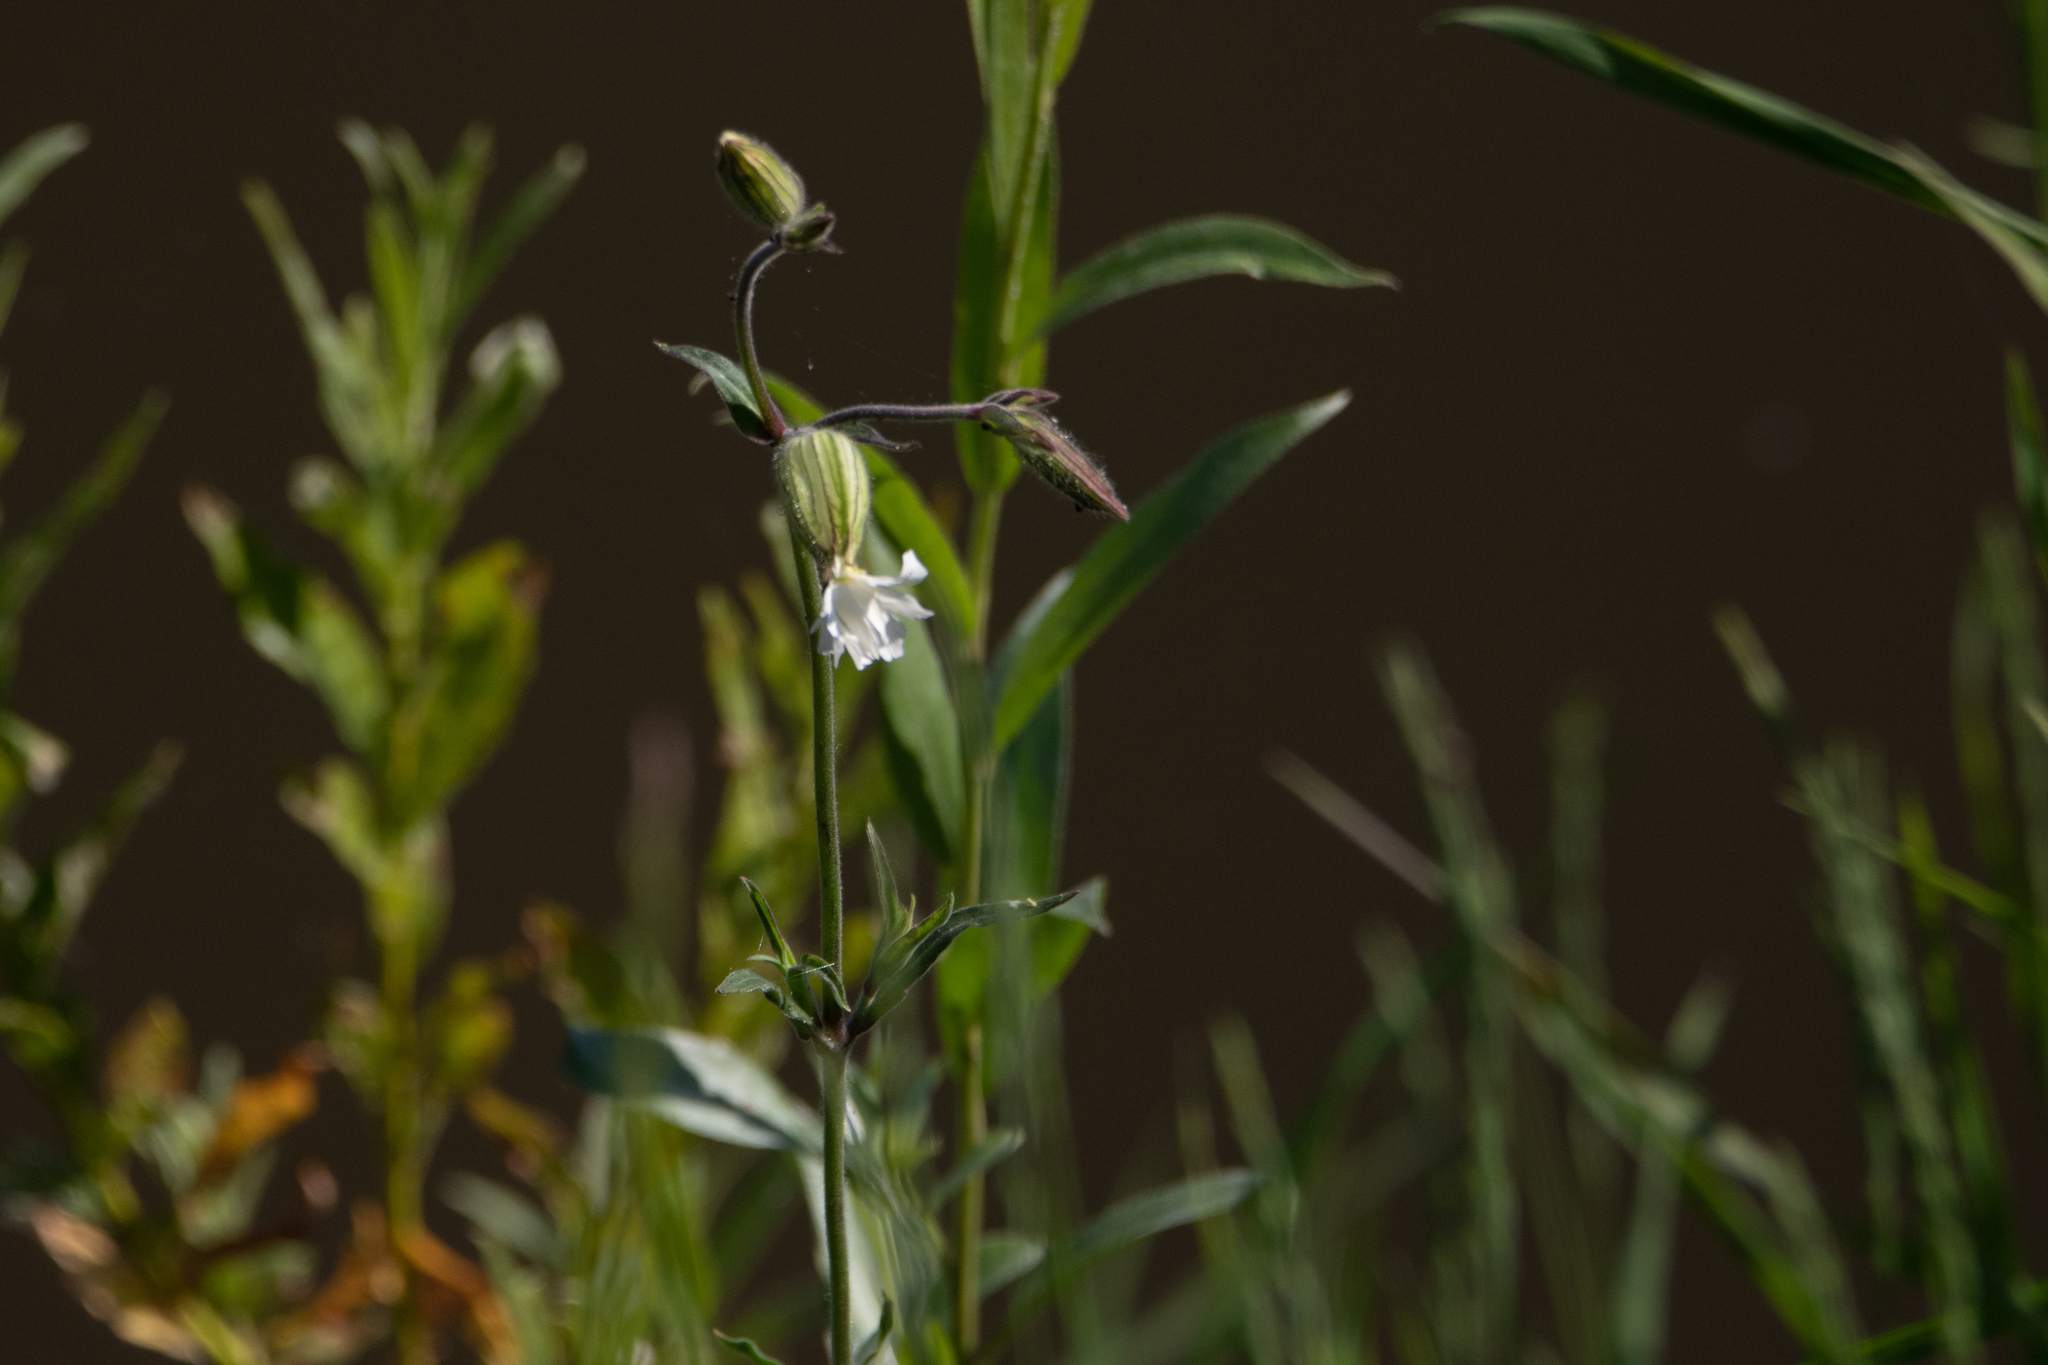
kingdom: Plantae
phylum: Tracheophyta
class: Magnoliopsida
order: Caryophyllales
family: Caryophyllaceae
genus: Silene
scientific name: Silene latifolia
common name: White campion
